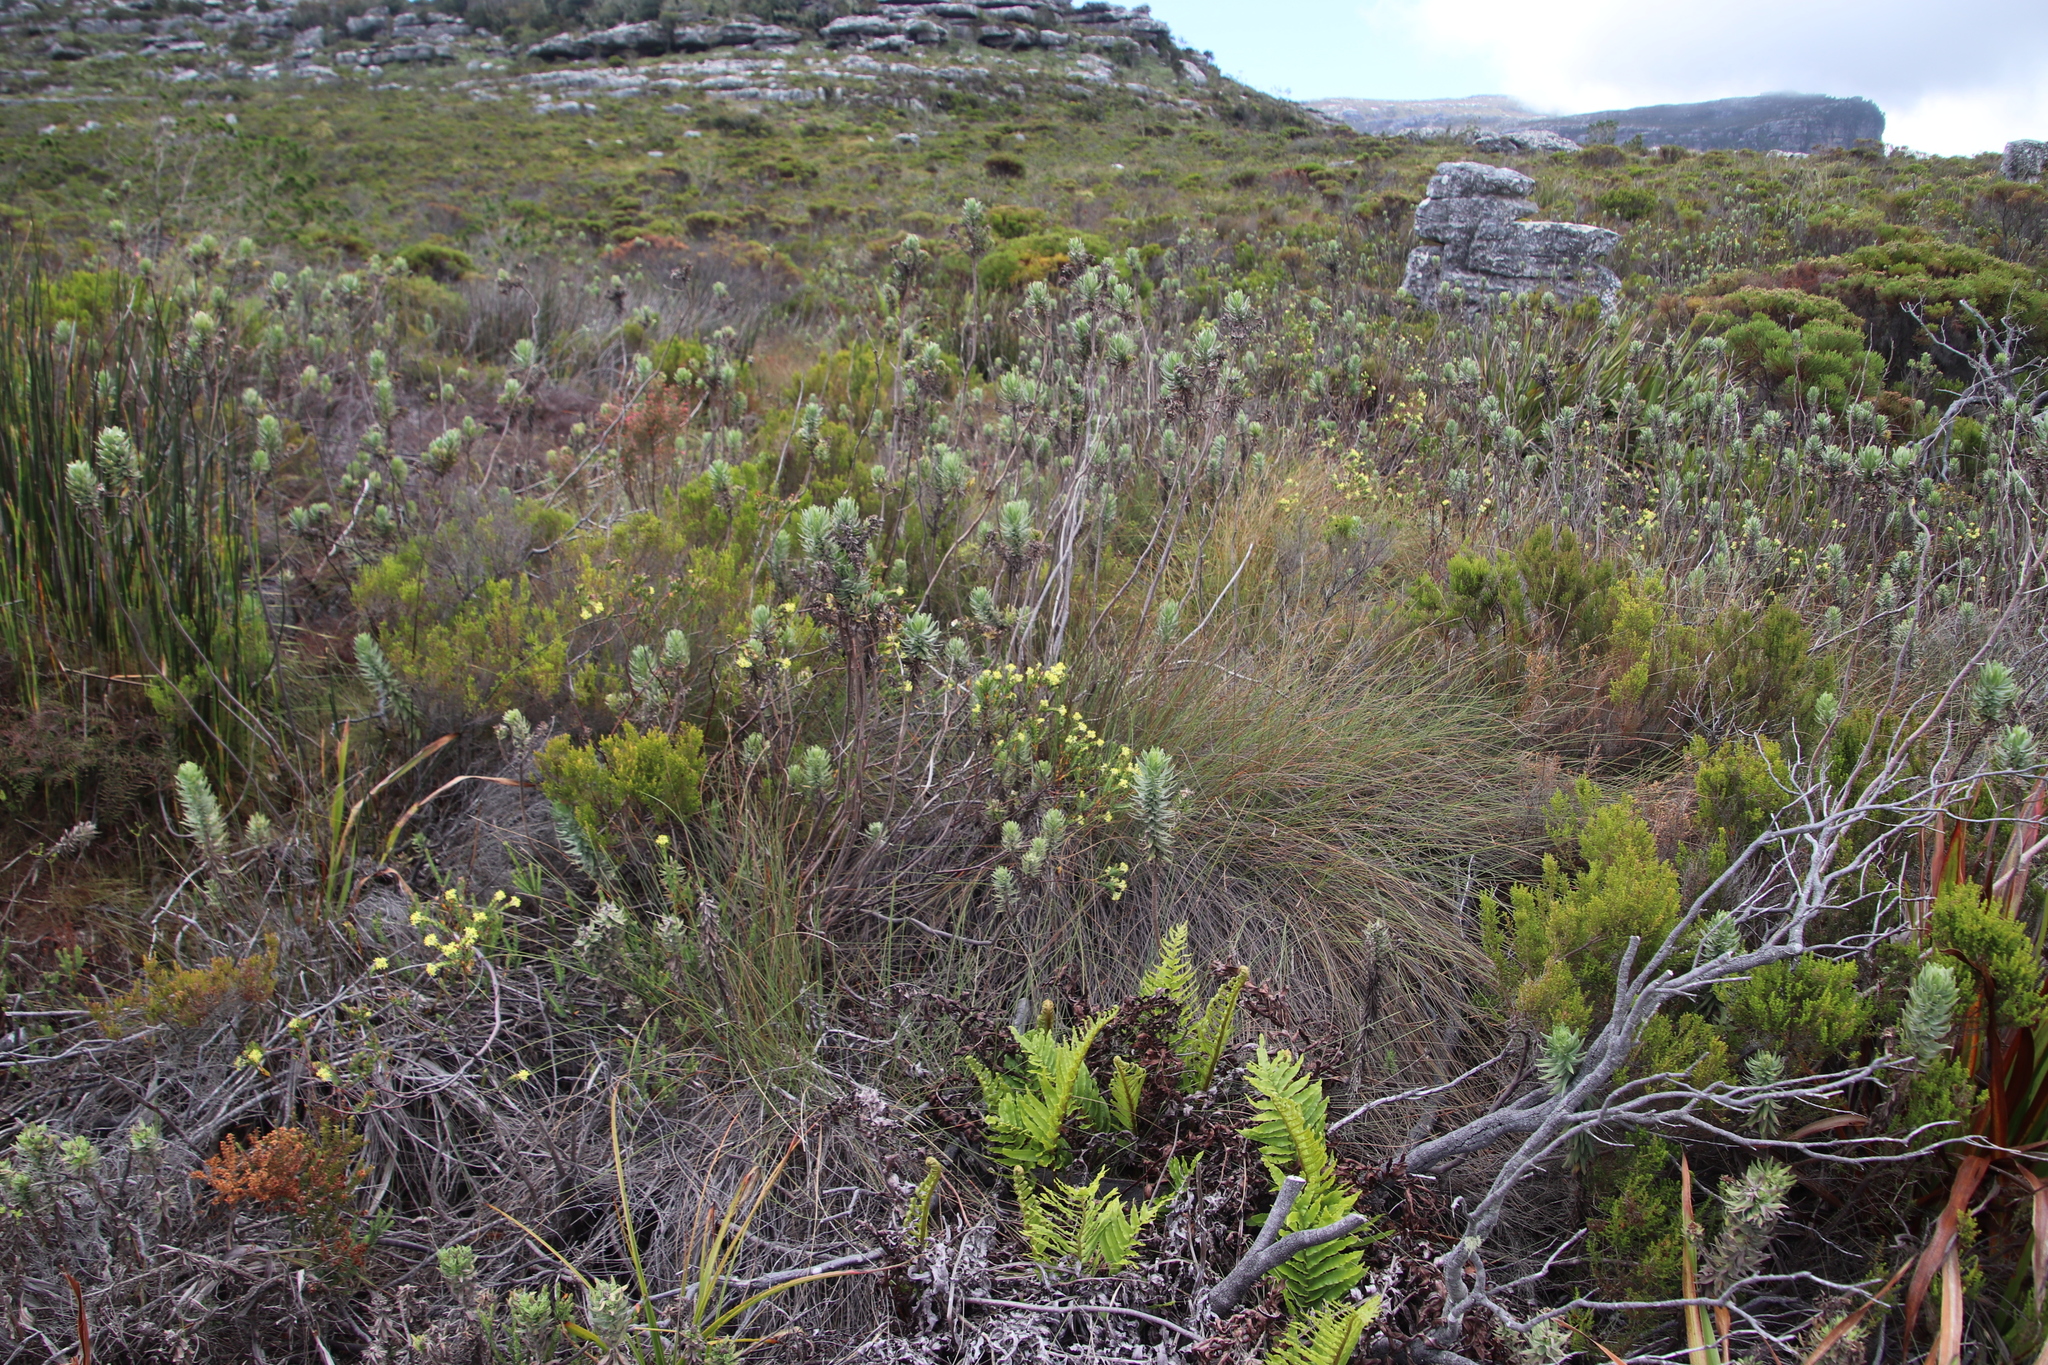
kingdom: Plantae
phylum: Tracheophyta
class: Magnoliopsida
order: Malvales
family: Thymelaeaceae
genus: Gnidia
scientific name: Gnidia oppositifolia
